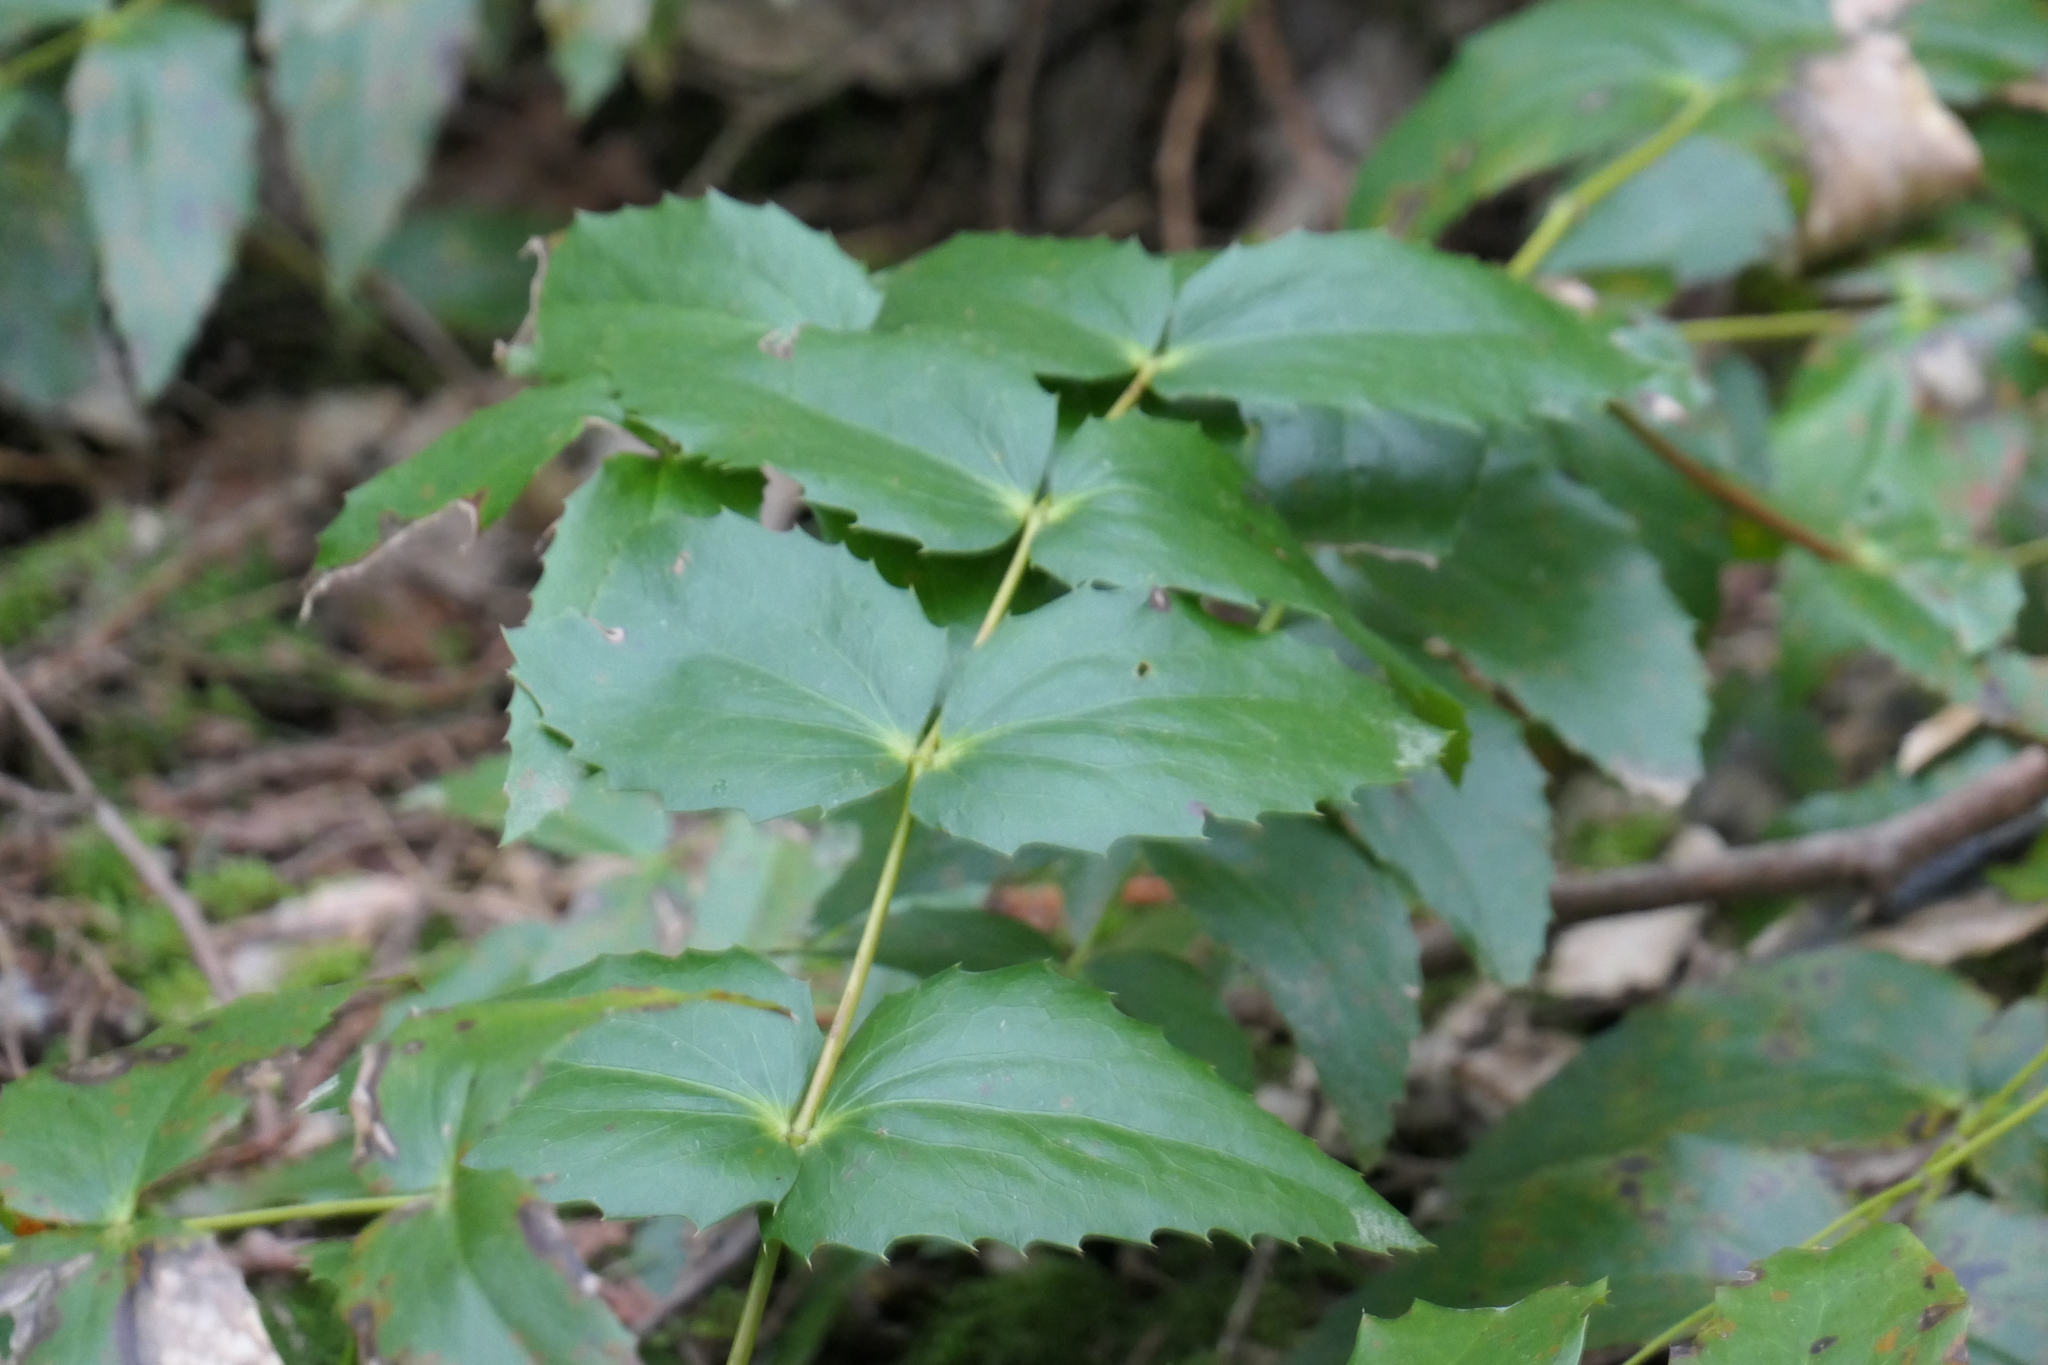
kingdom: Plantae
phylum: Tracheophyta
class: Magnoliopsida
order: Ranunculales
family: Berberidaceae
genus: Mahonia
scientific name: Mahonia nervosa
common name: Cascade oregon-grape
